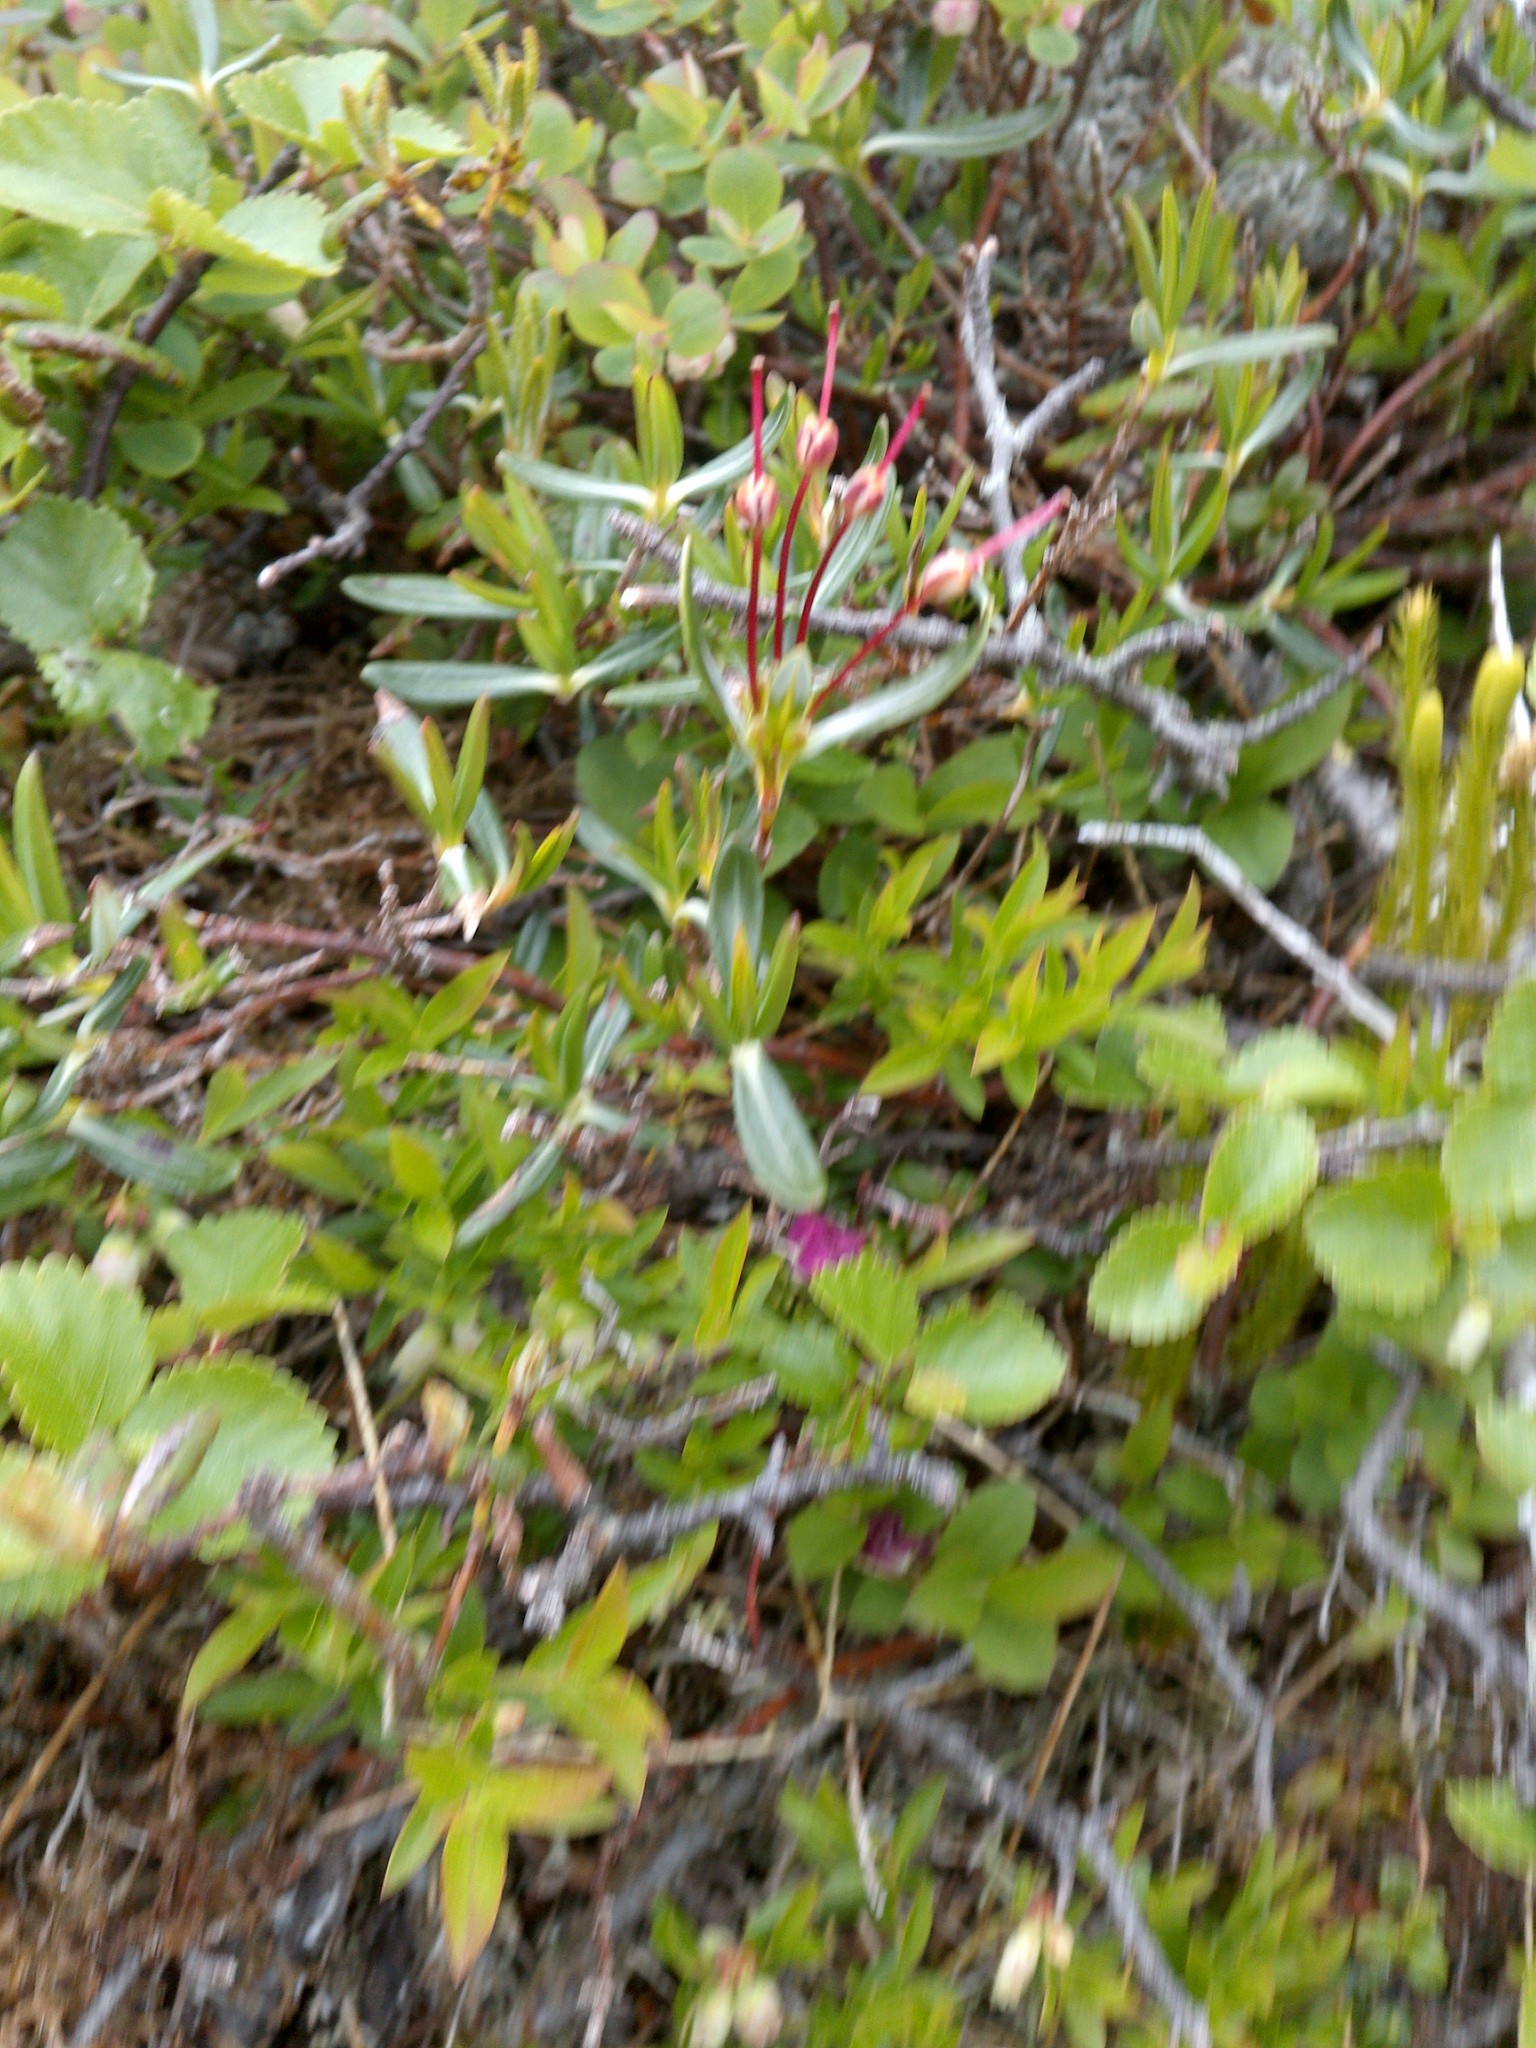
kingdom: Plantae
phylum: Tracheophyta
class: Magnoliopsida
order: Ericales
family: Ericaceae
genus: Kalmia
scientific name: Kalmia polifolia
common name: Bog-laurel
